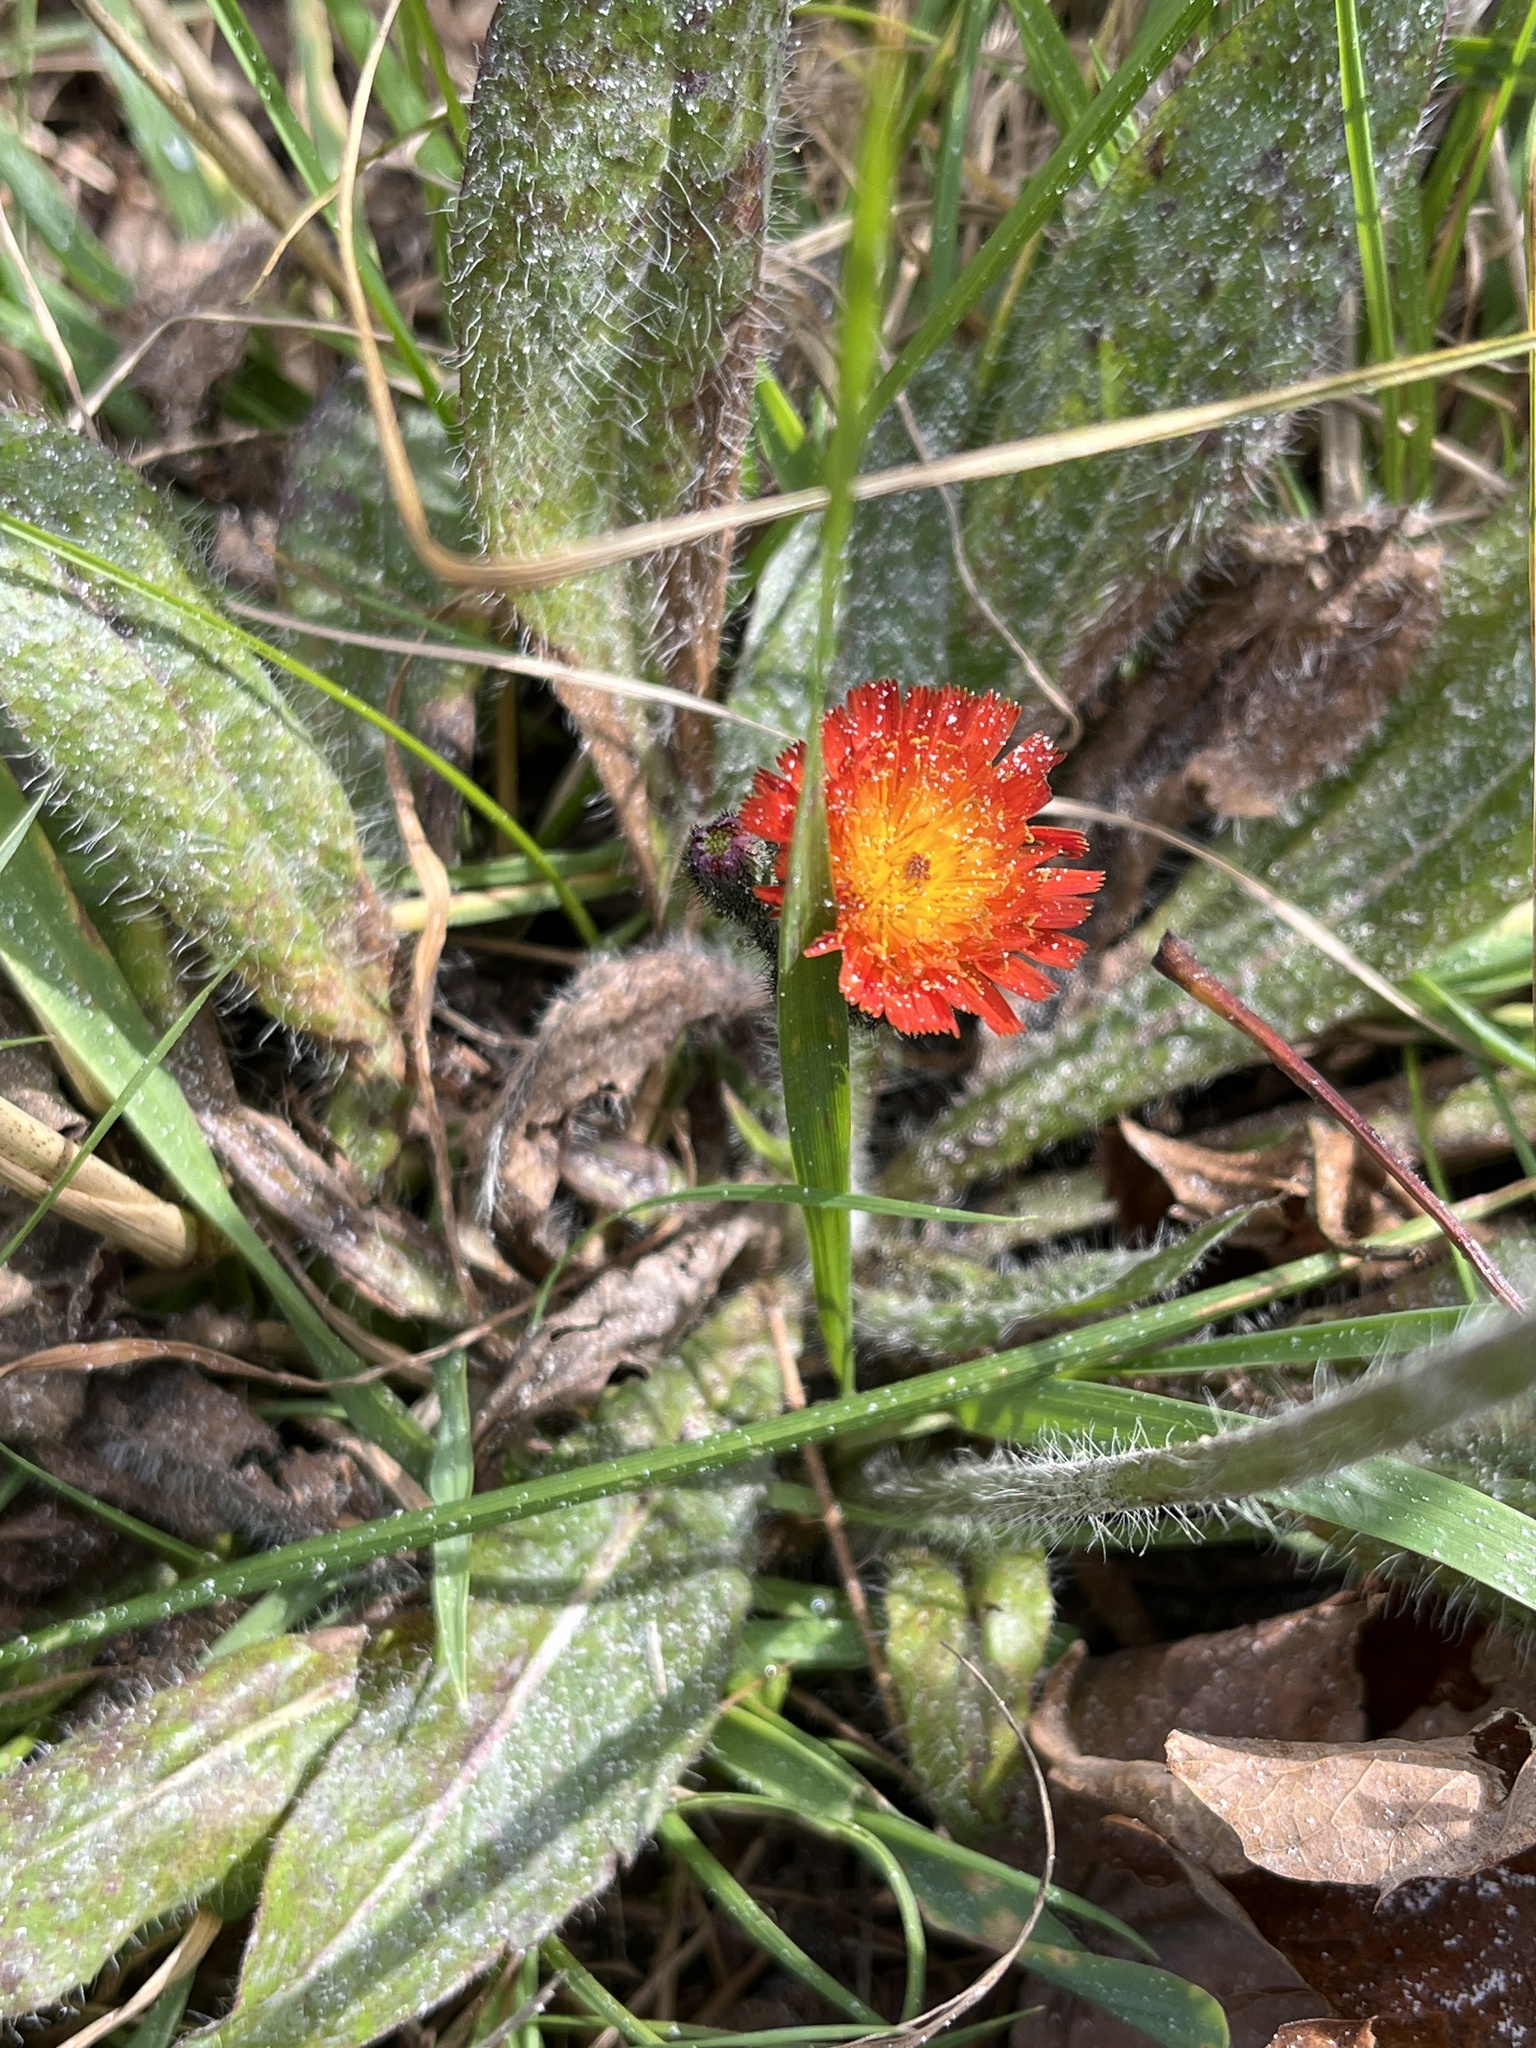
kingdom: Plantae
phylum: Tracheophyta
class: Magnoliopsida
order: Asterales
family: Asteraceae
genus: Pilosella
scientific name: Pilosella aurantiaca
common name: Fox-and-cubs
